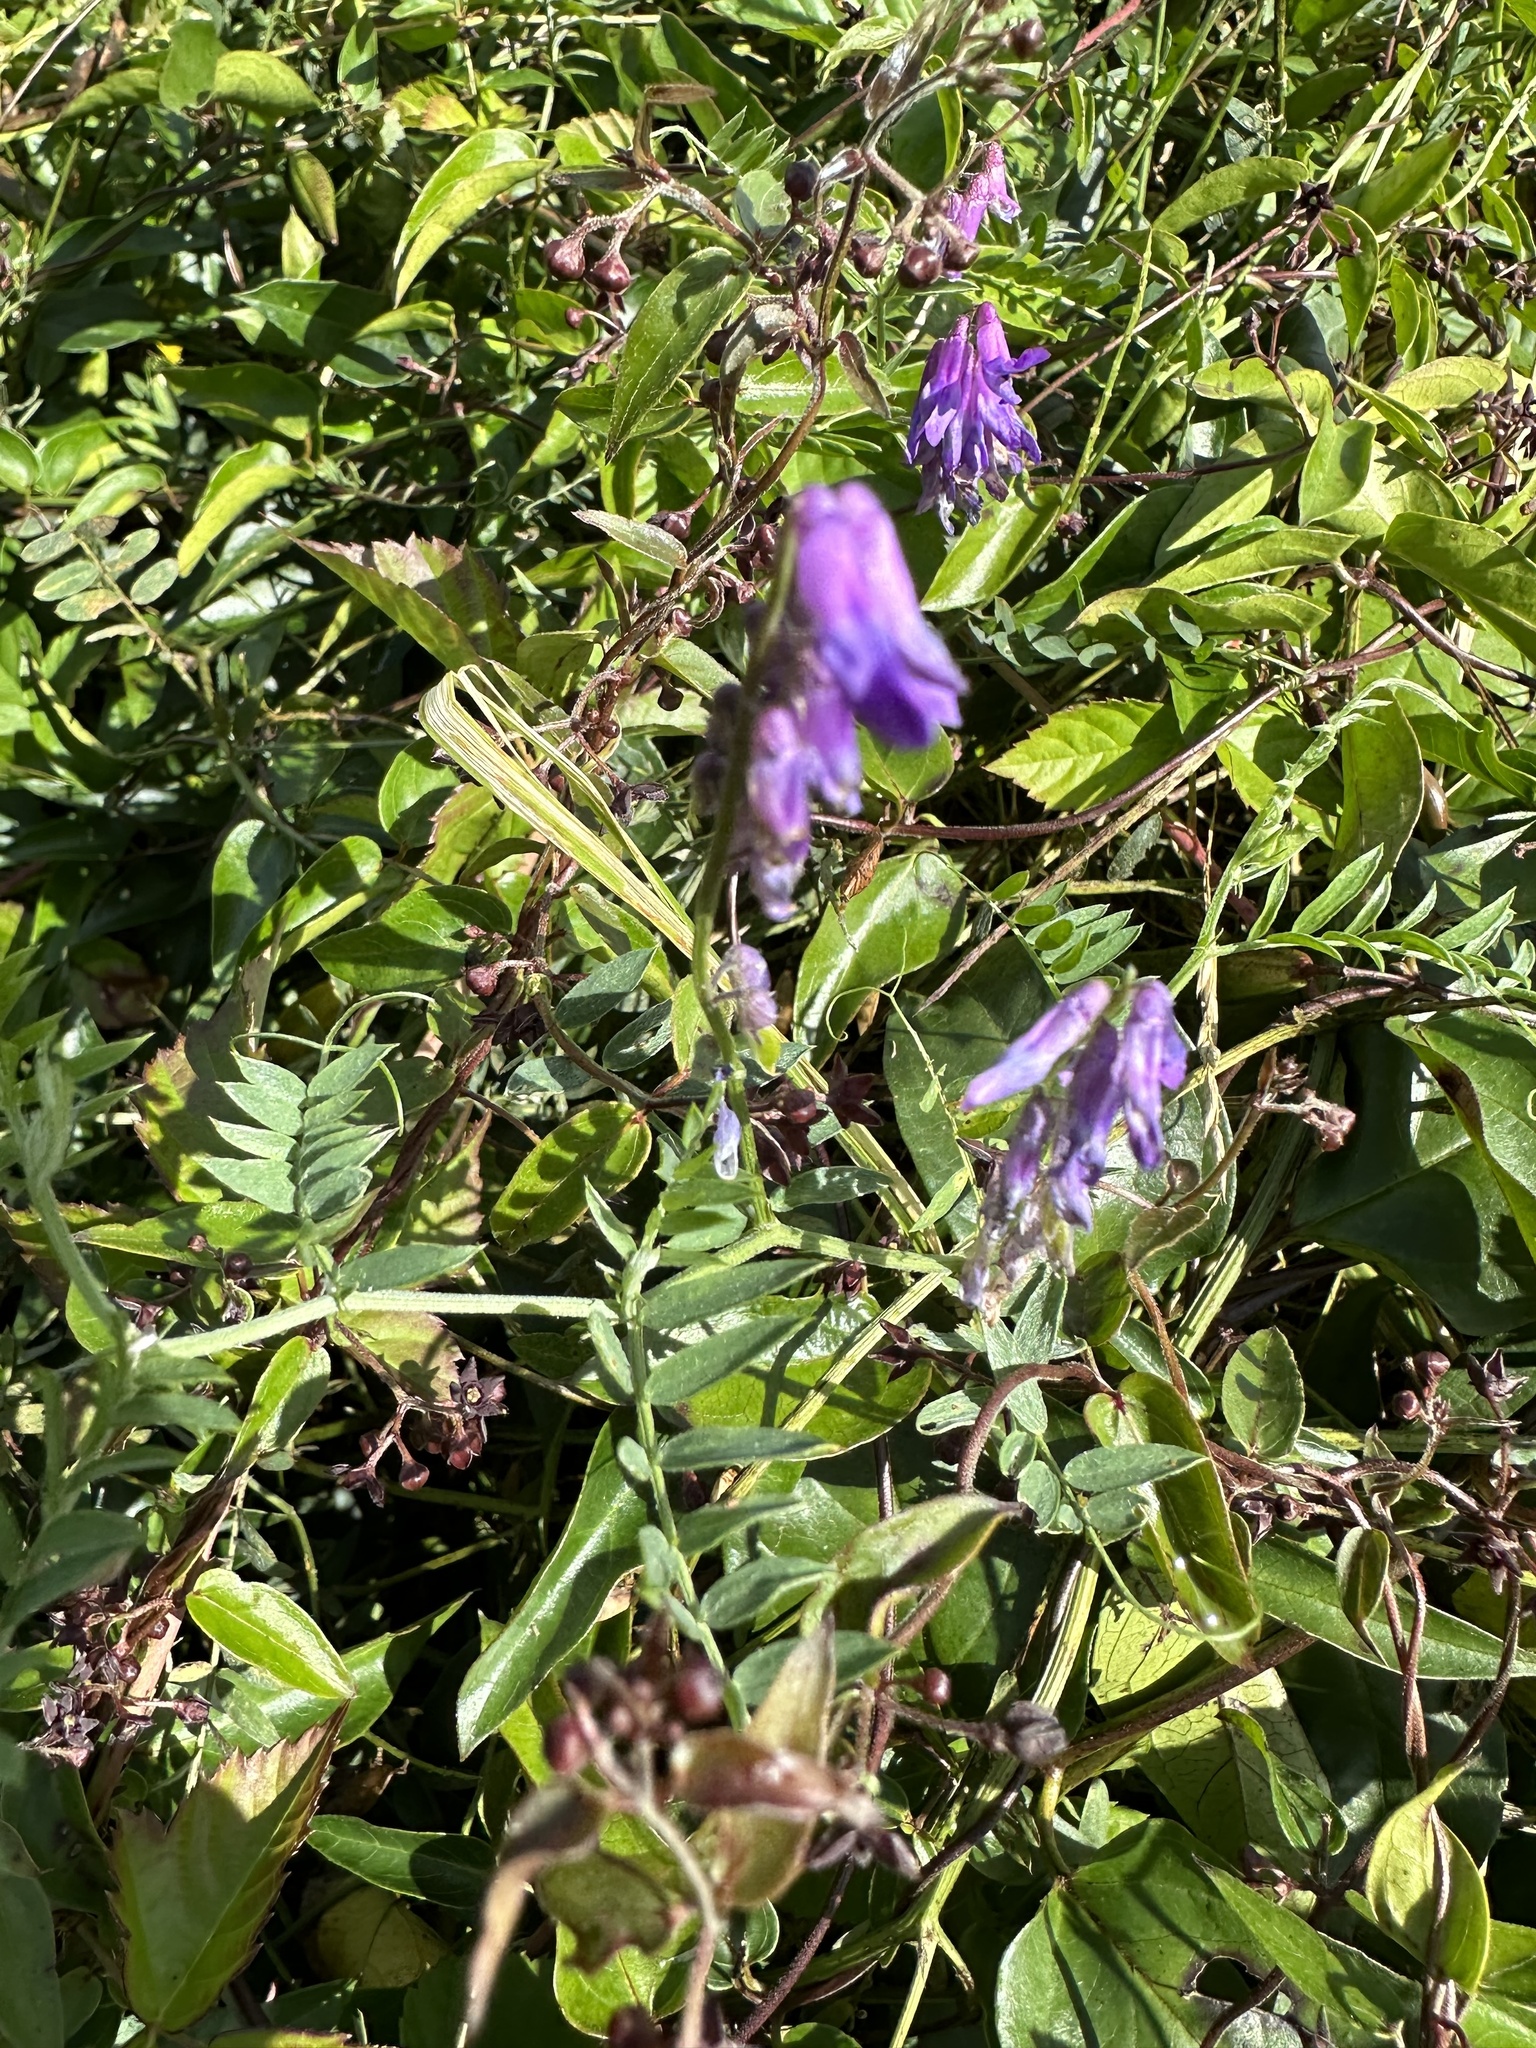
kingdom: Plantae
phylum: Tracheophyta
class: Magnoliopsida
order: Fabales
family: Fabaceae
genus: Vicia
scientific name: Vicia cracca
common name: Bird vetch
